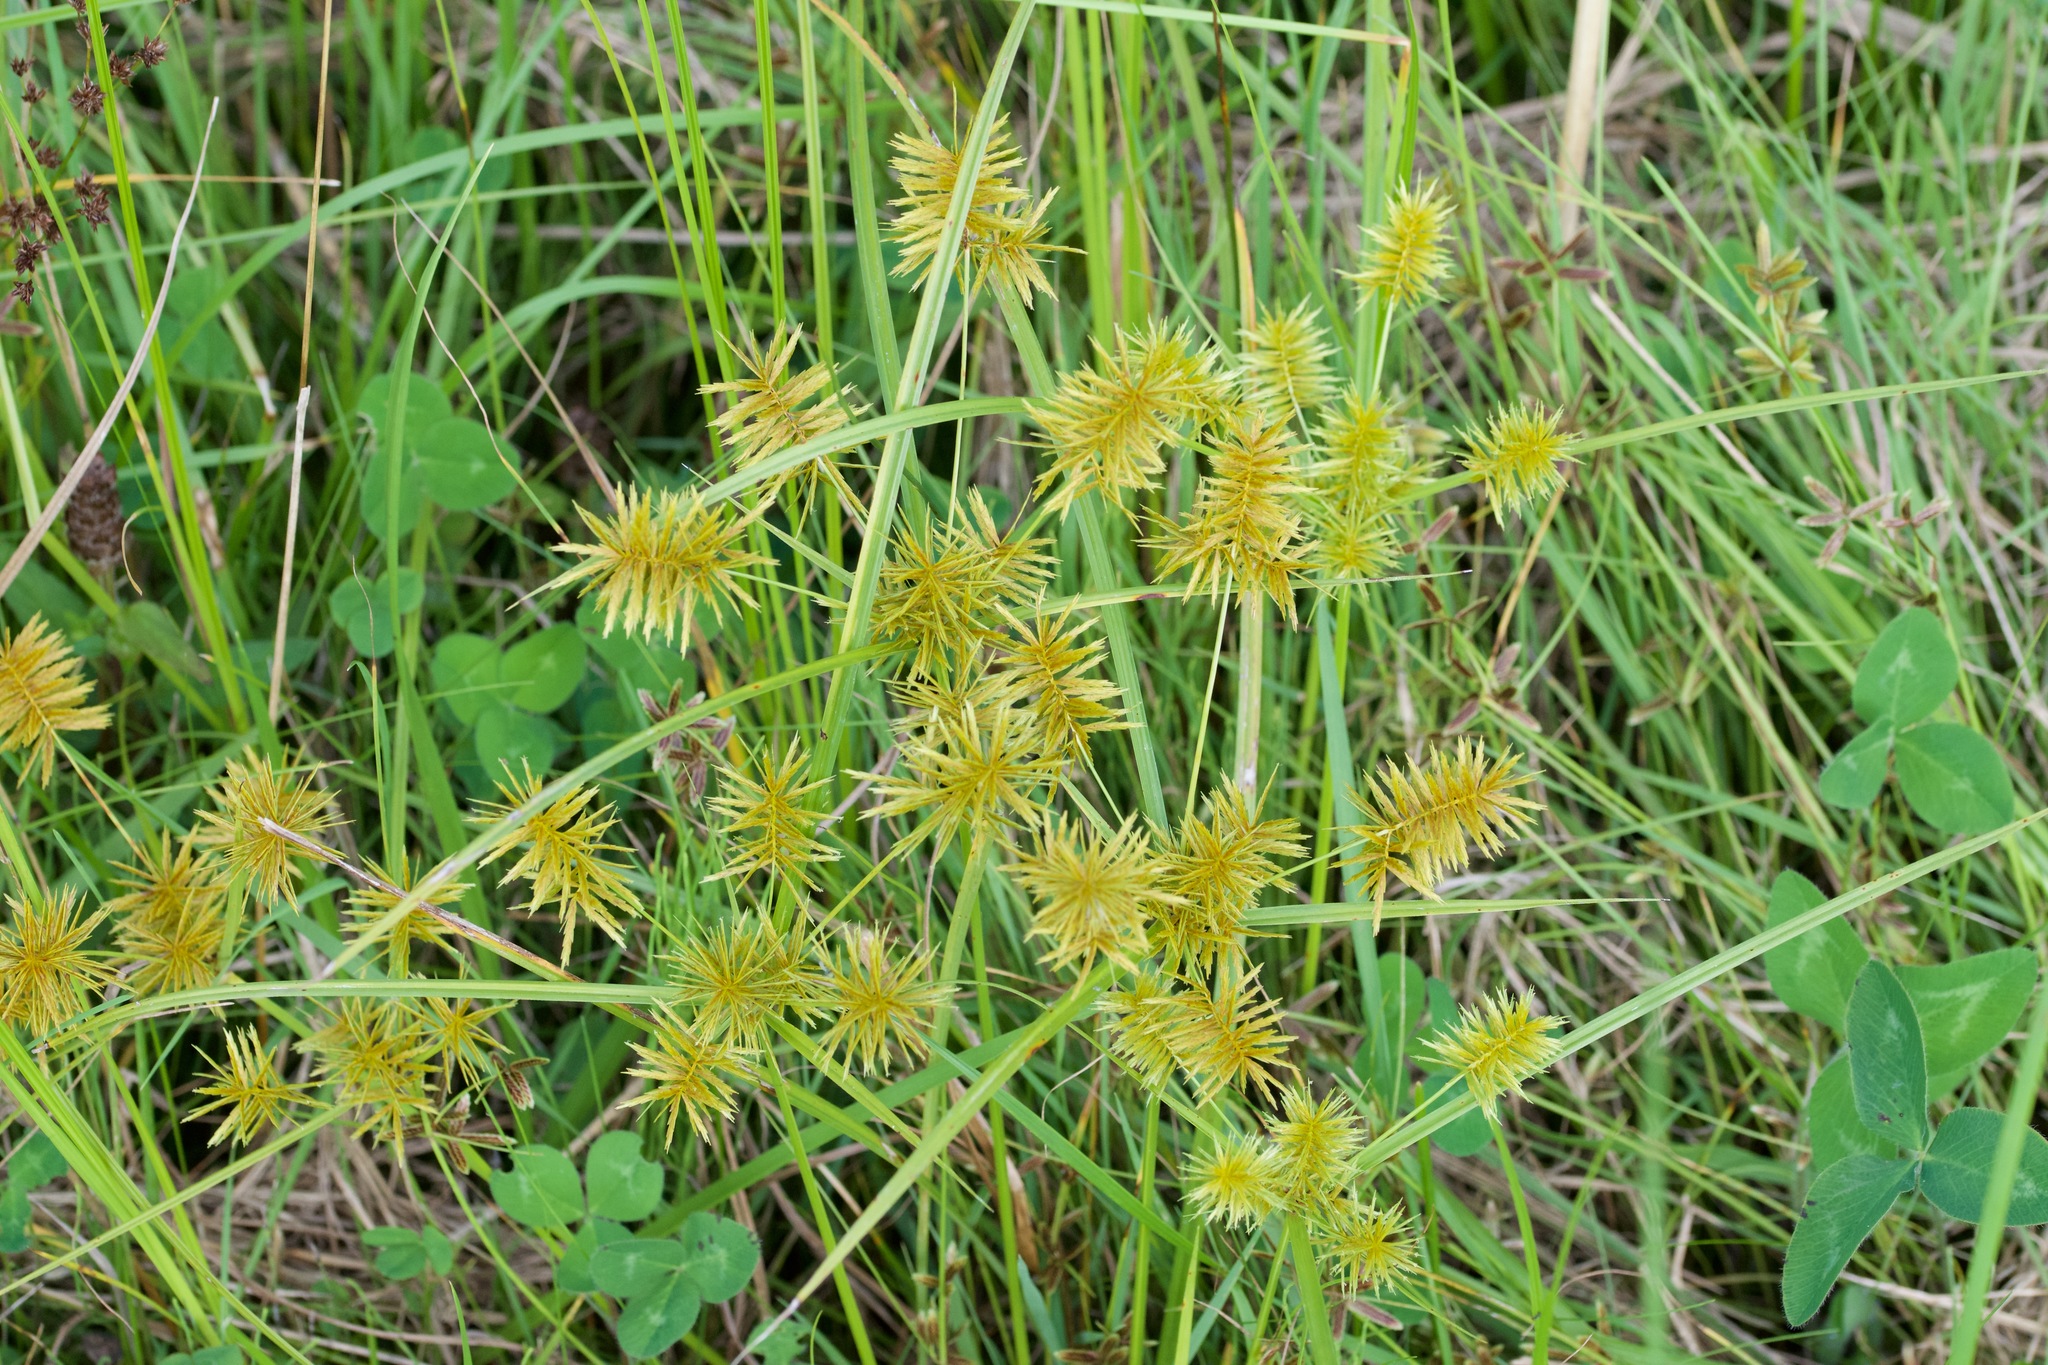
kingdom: Plantae
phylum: Tracheophyta
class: Liliopsida
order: Poales
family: Cyperaceae
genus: Cyperus
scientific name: Cyperus strigosus
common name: False nutsedge
